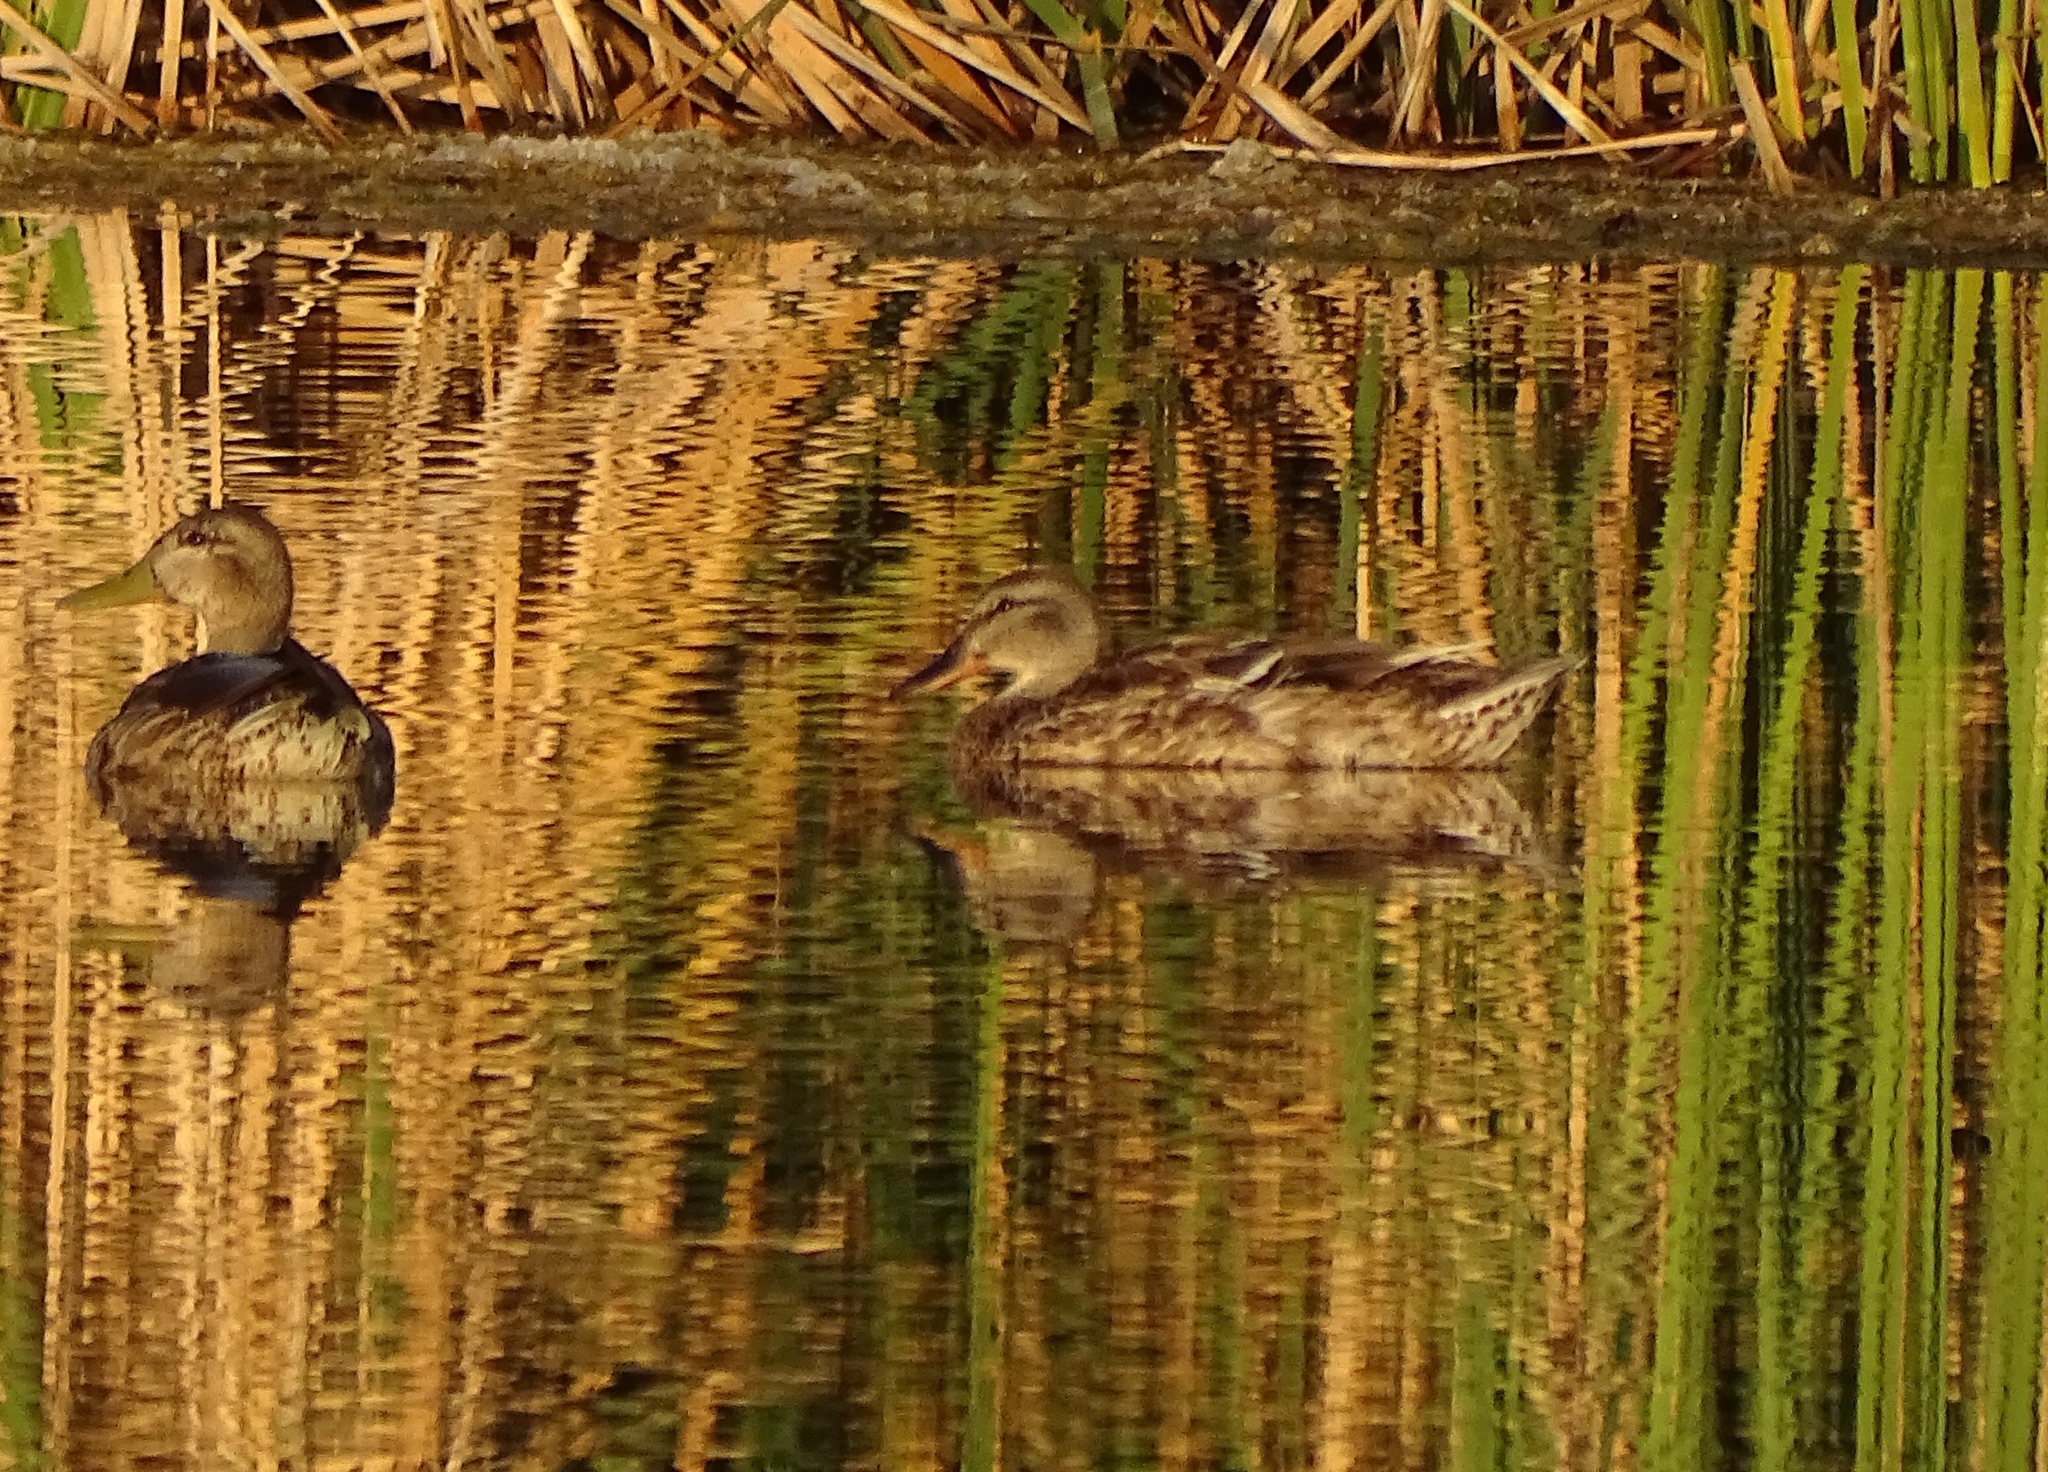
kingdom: Animalia
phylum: Chordata
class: Aves
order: Anseriformes
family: Anatidae
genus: Anas
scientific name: Anas platyrhynchos
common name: Mallard
